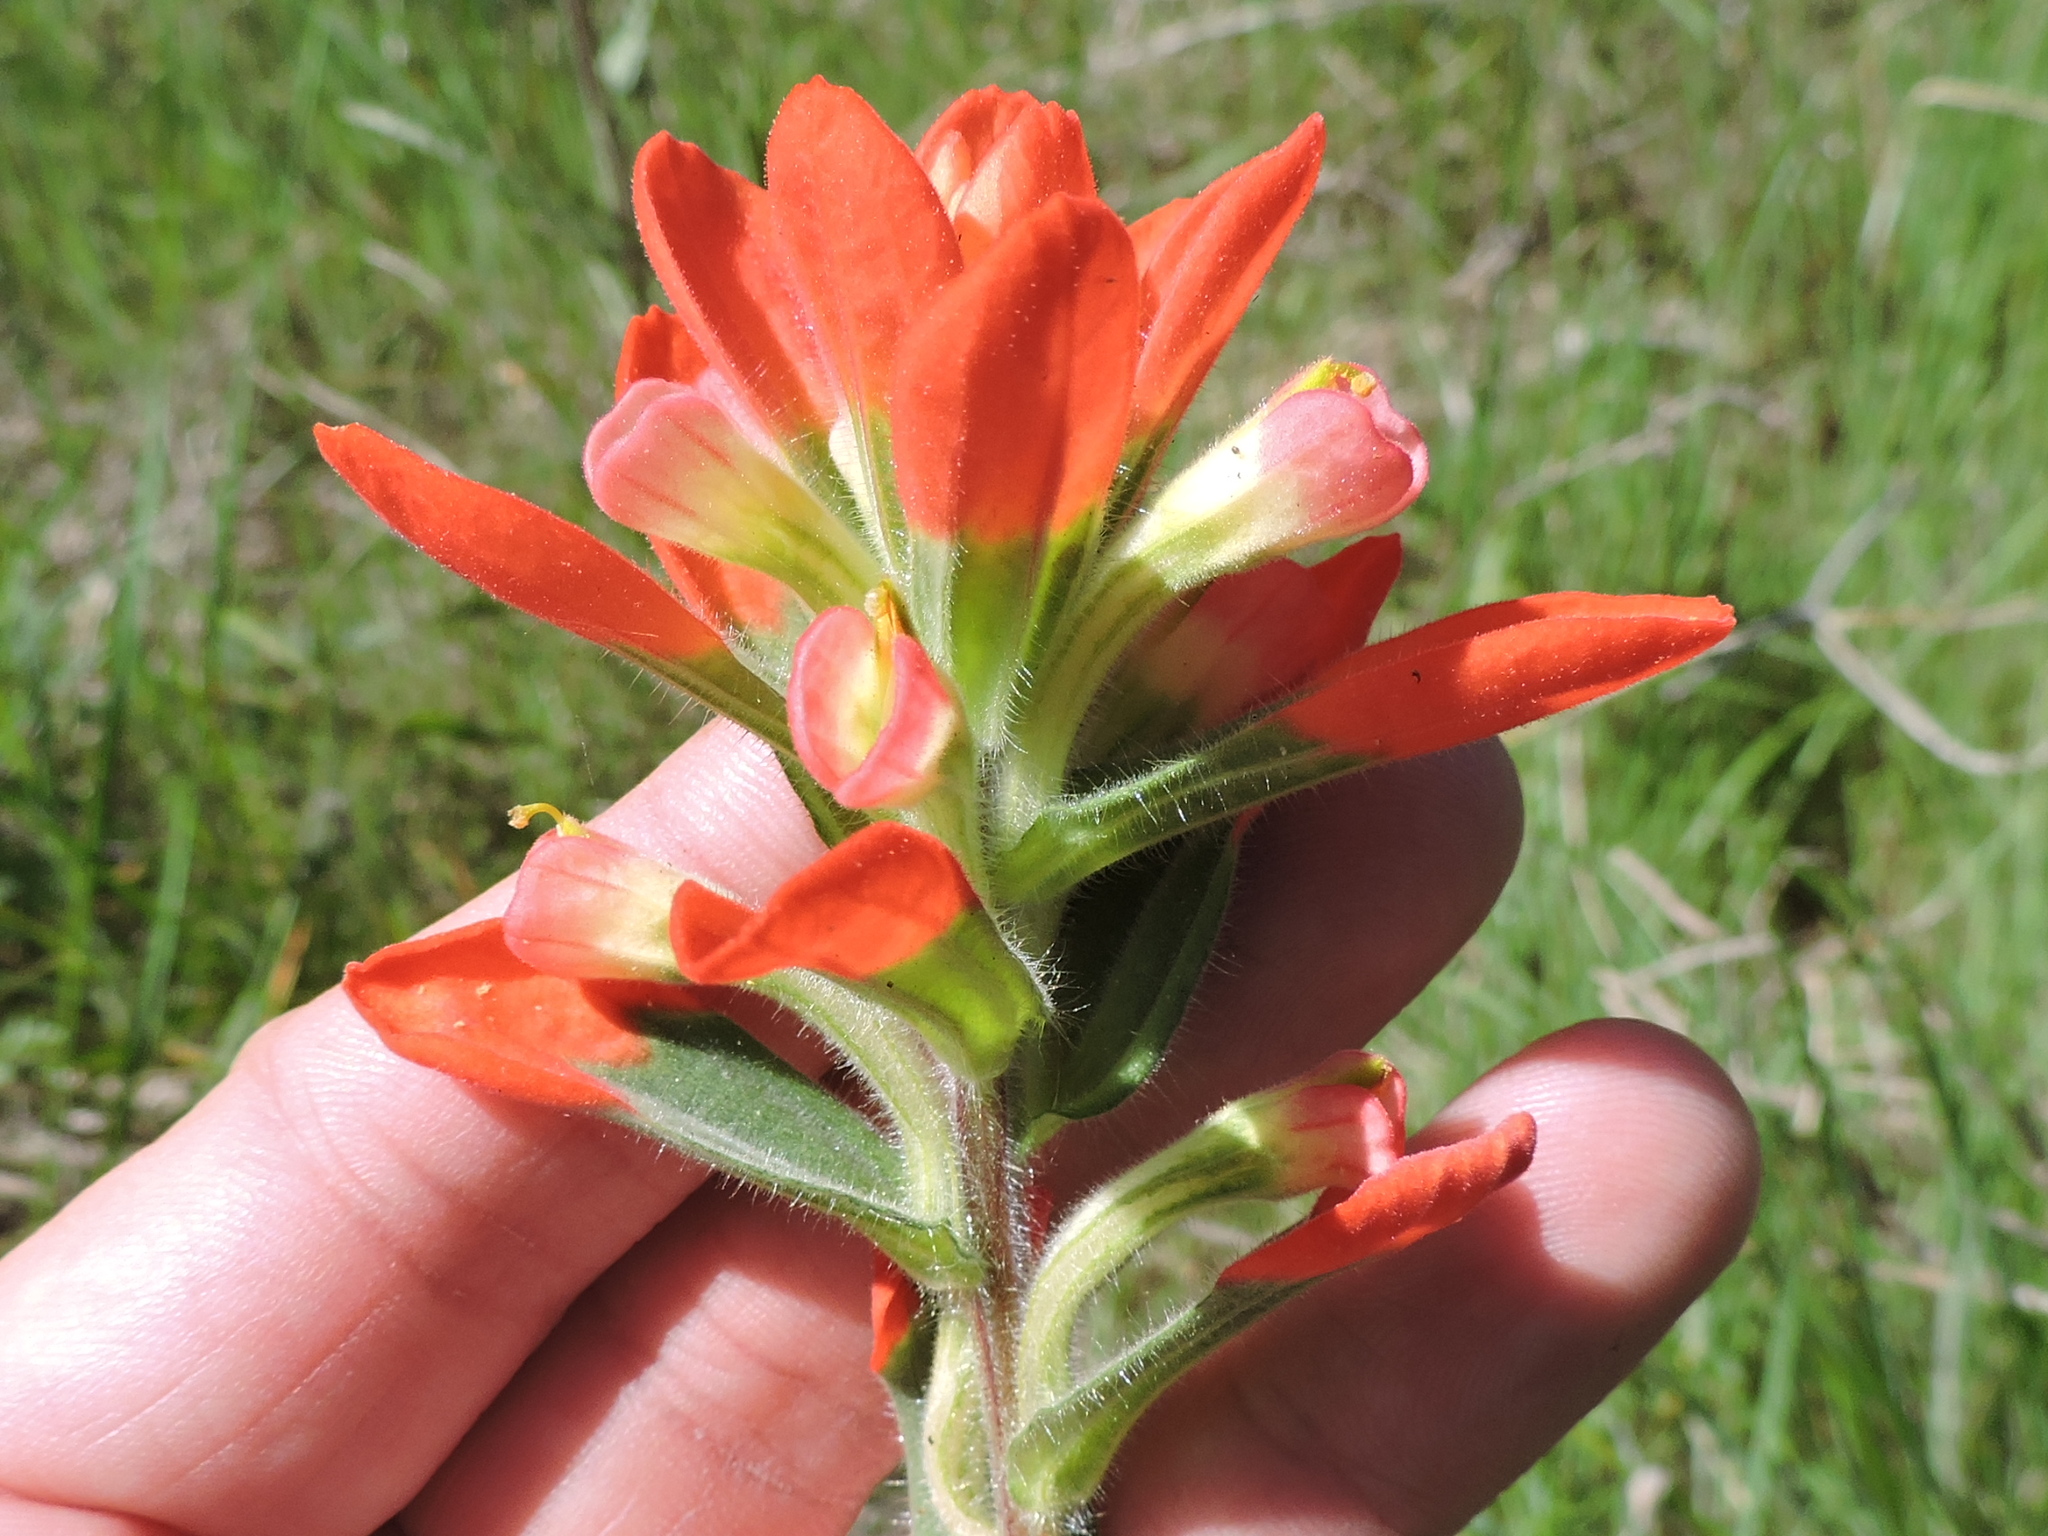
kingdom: Plantae
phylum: Tracheophyta
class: Magnoliopsida
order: Lamiales
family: Orobanchaceae
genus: Castilleja
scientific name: Castilleja indivisa
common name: Texas paintbrush
